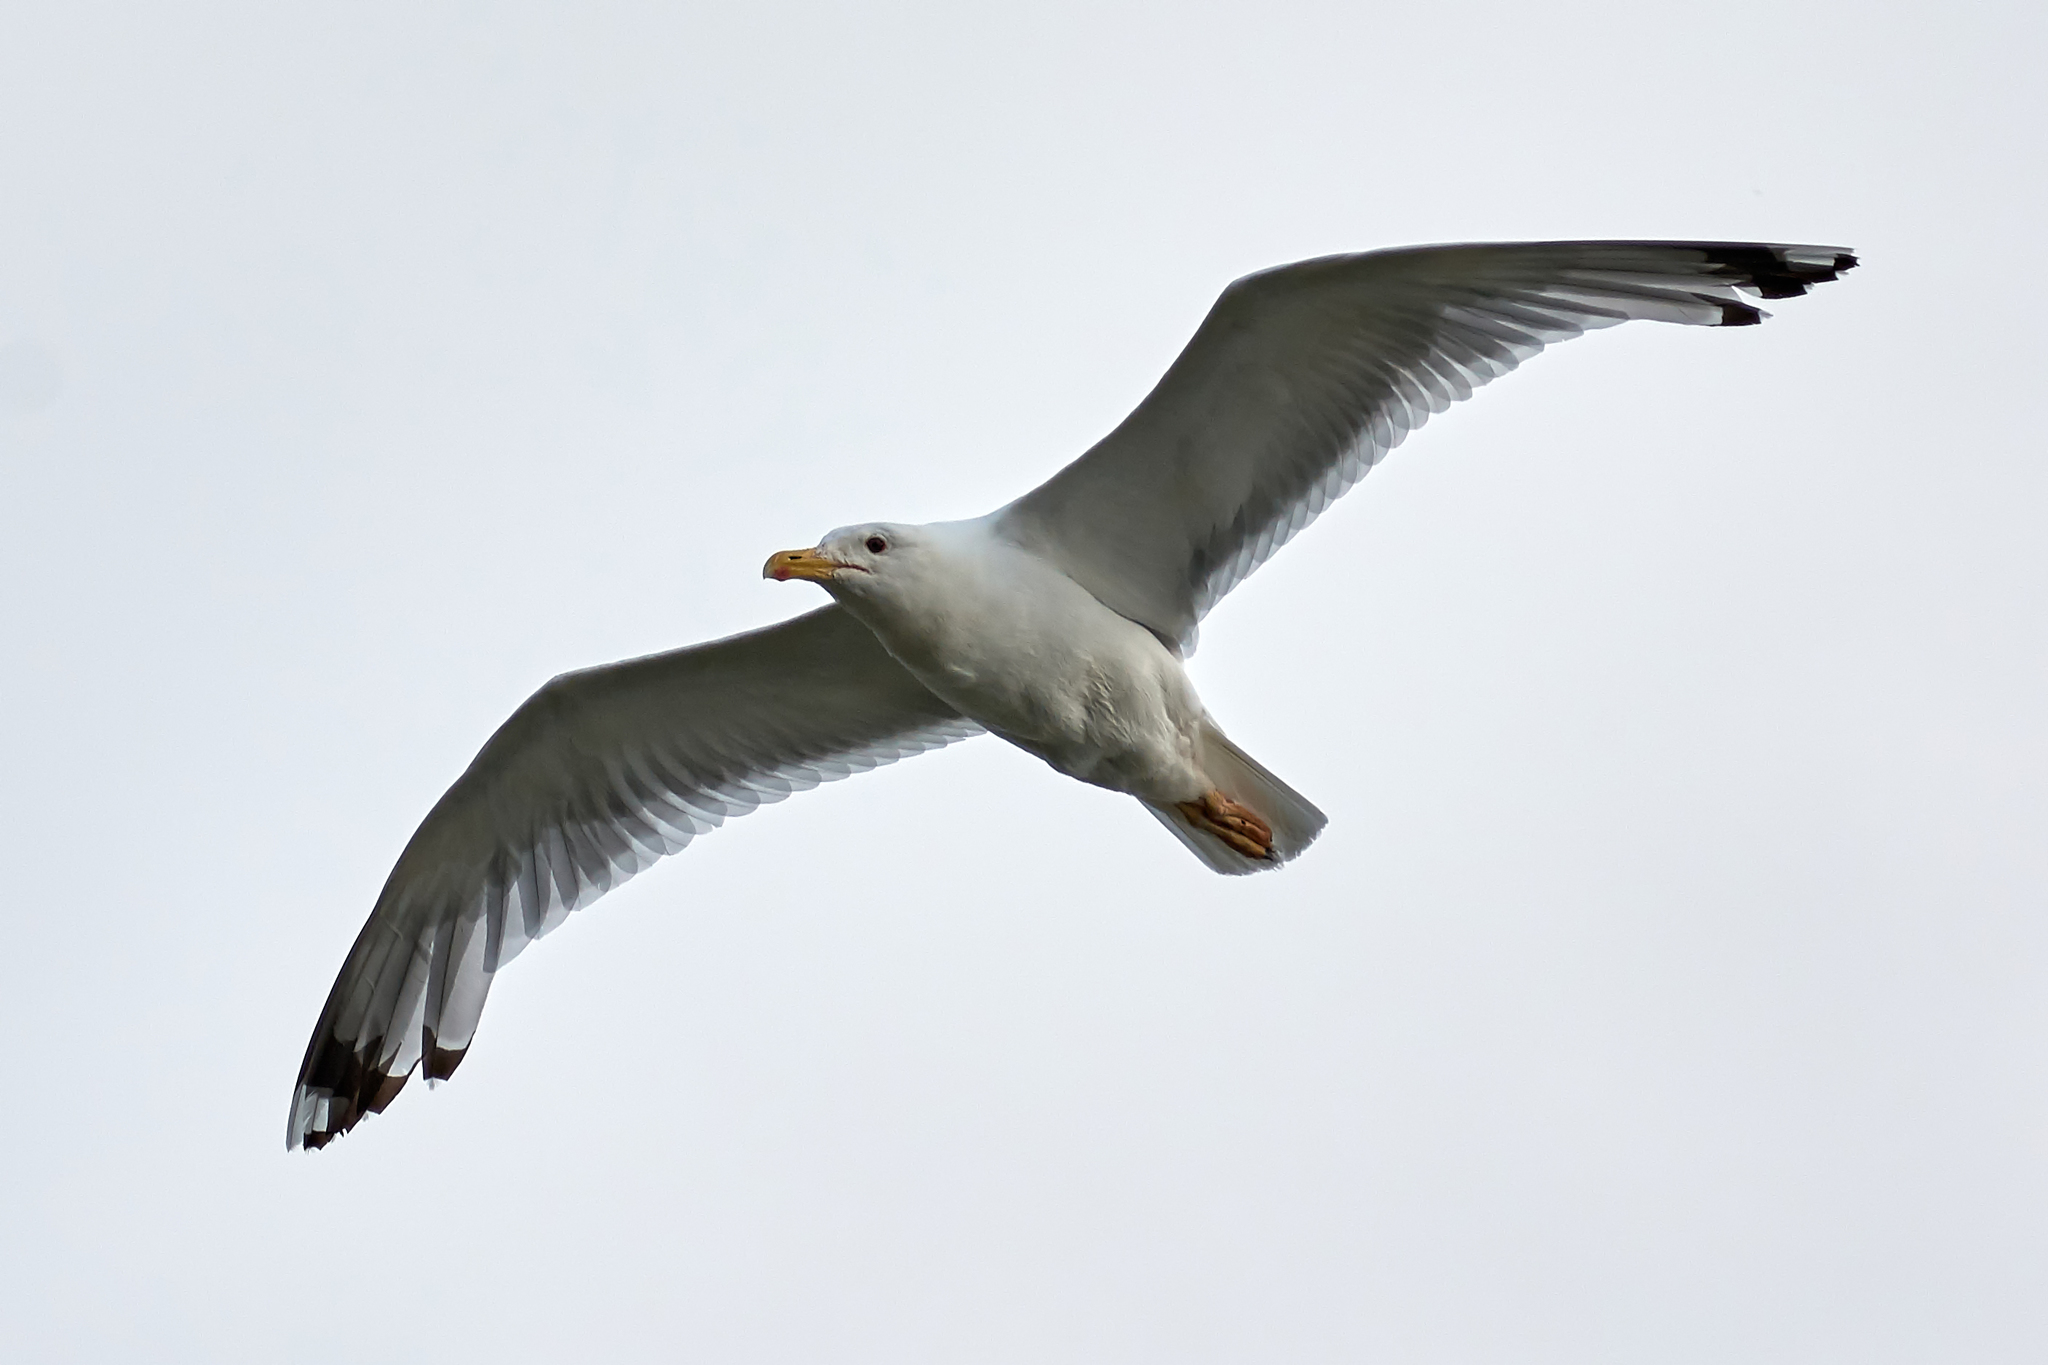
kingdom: Animalia
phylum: Chordata
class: Aves
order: Charadriiformes
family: Laridae
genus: Larus
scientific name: Larus argentatus
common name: Herring gull
